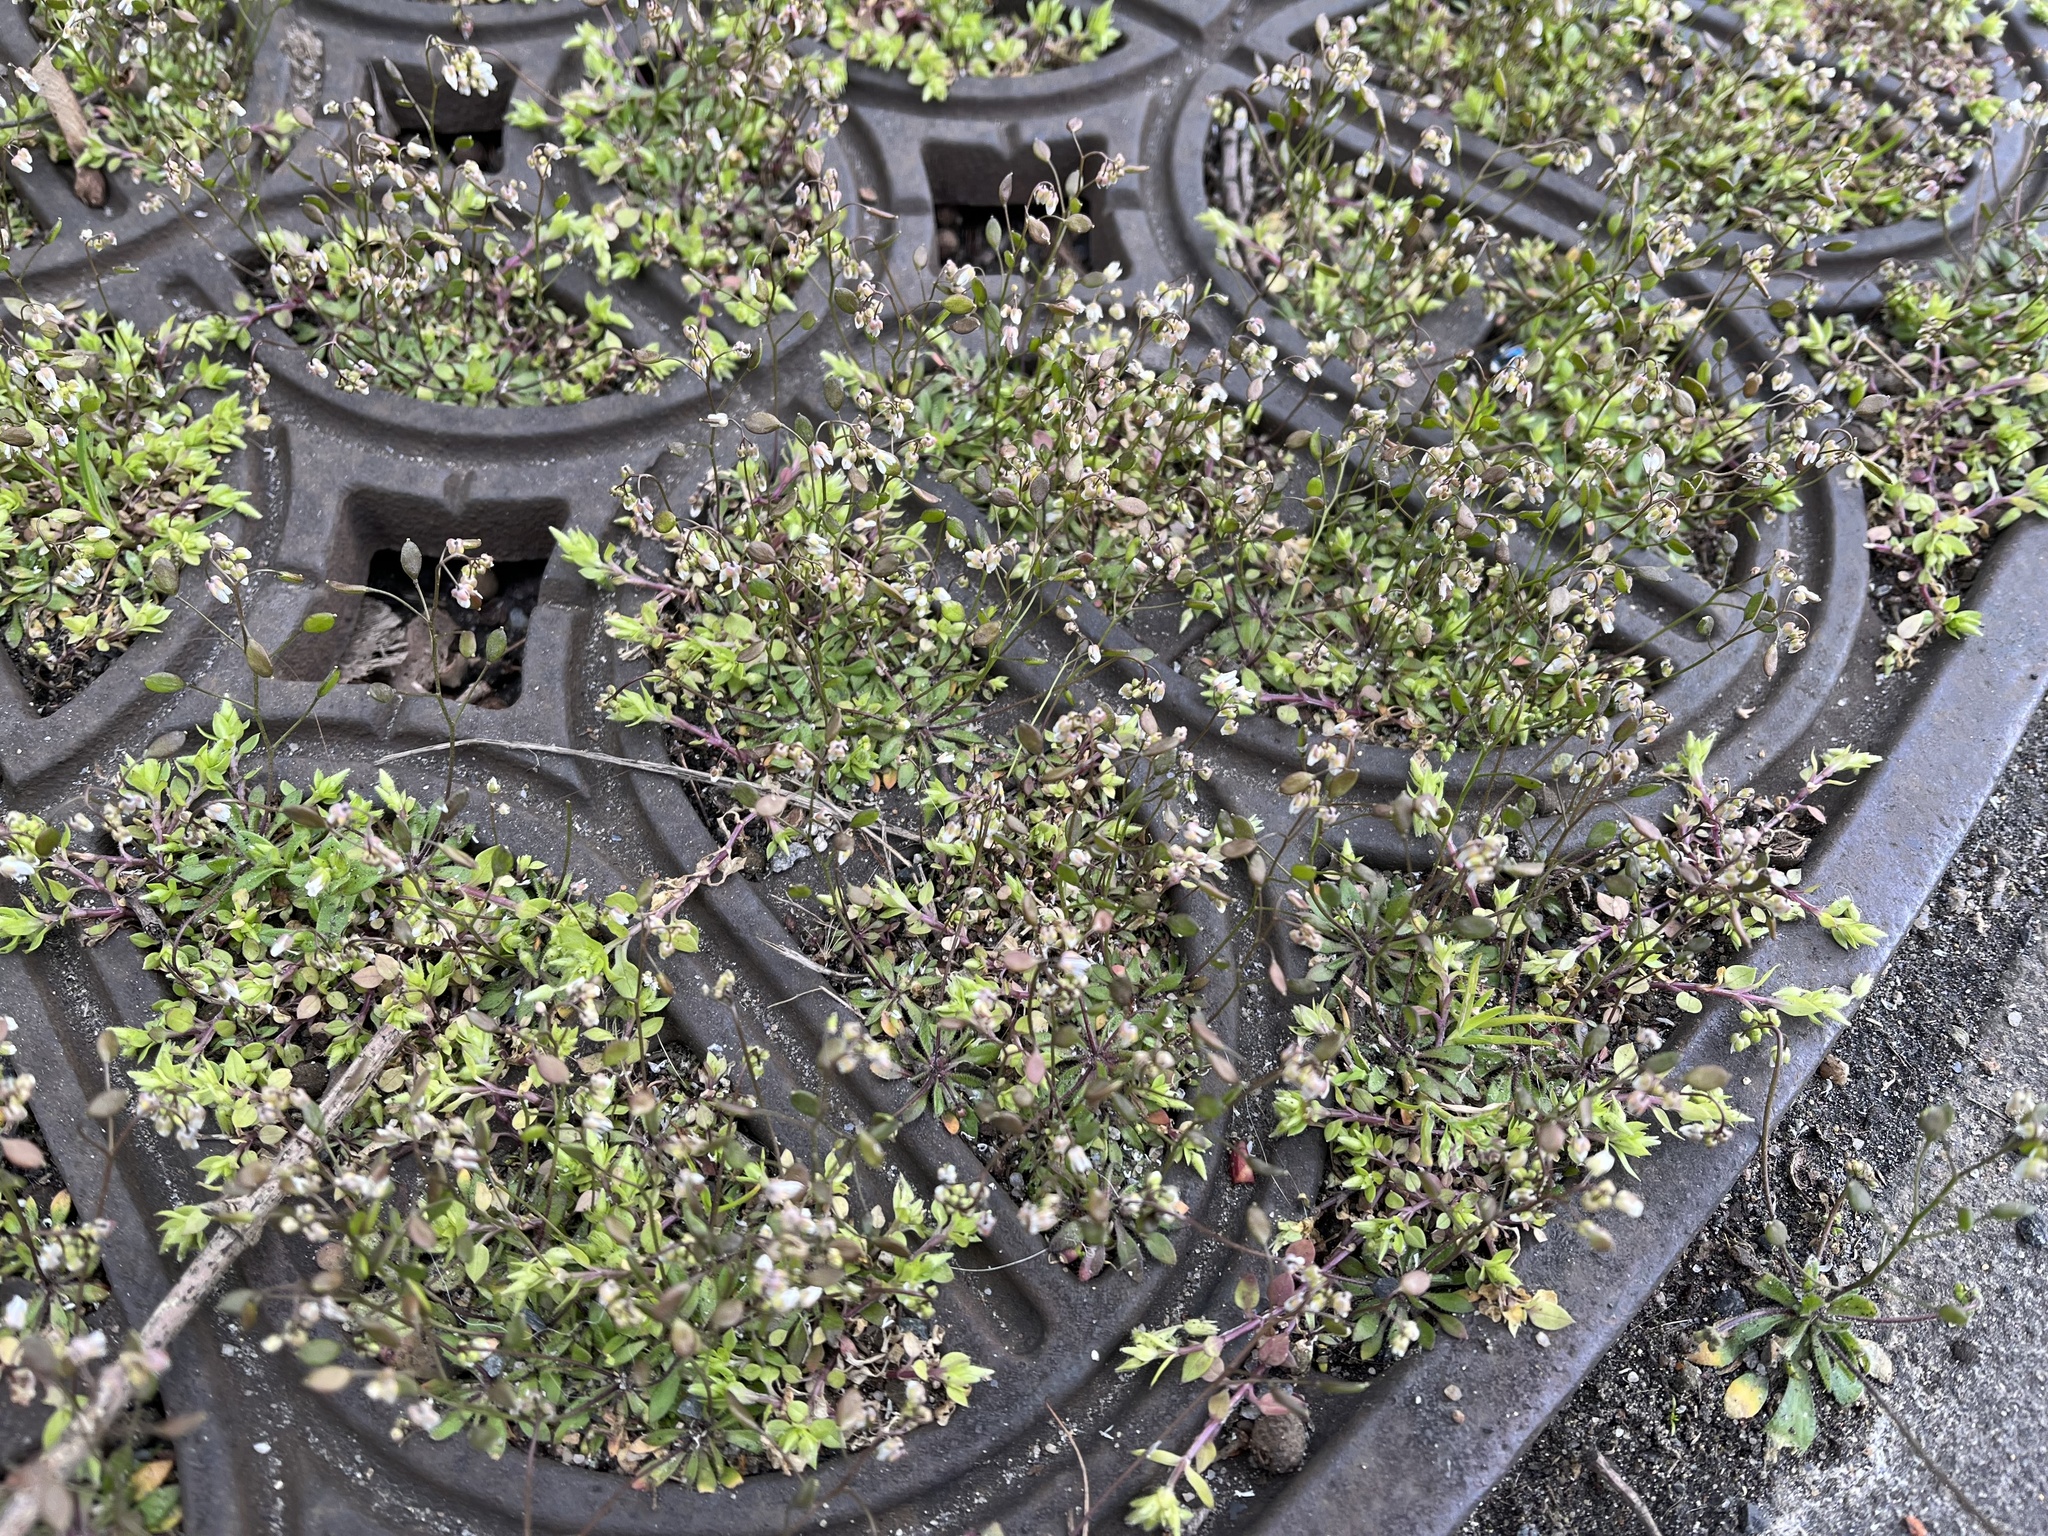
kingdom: Plantae
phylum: Tracheophyta
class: Magnoliopsida
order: Brassicales
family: Brassicaceae
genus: Draba
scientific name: Draba verna
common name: Spring draba
